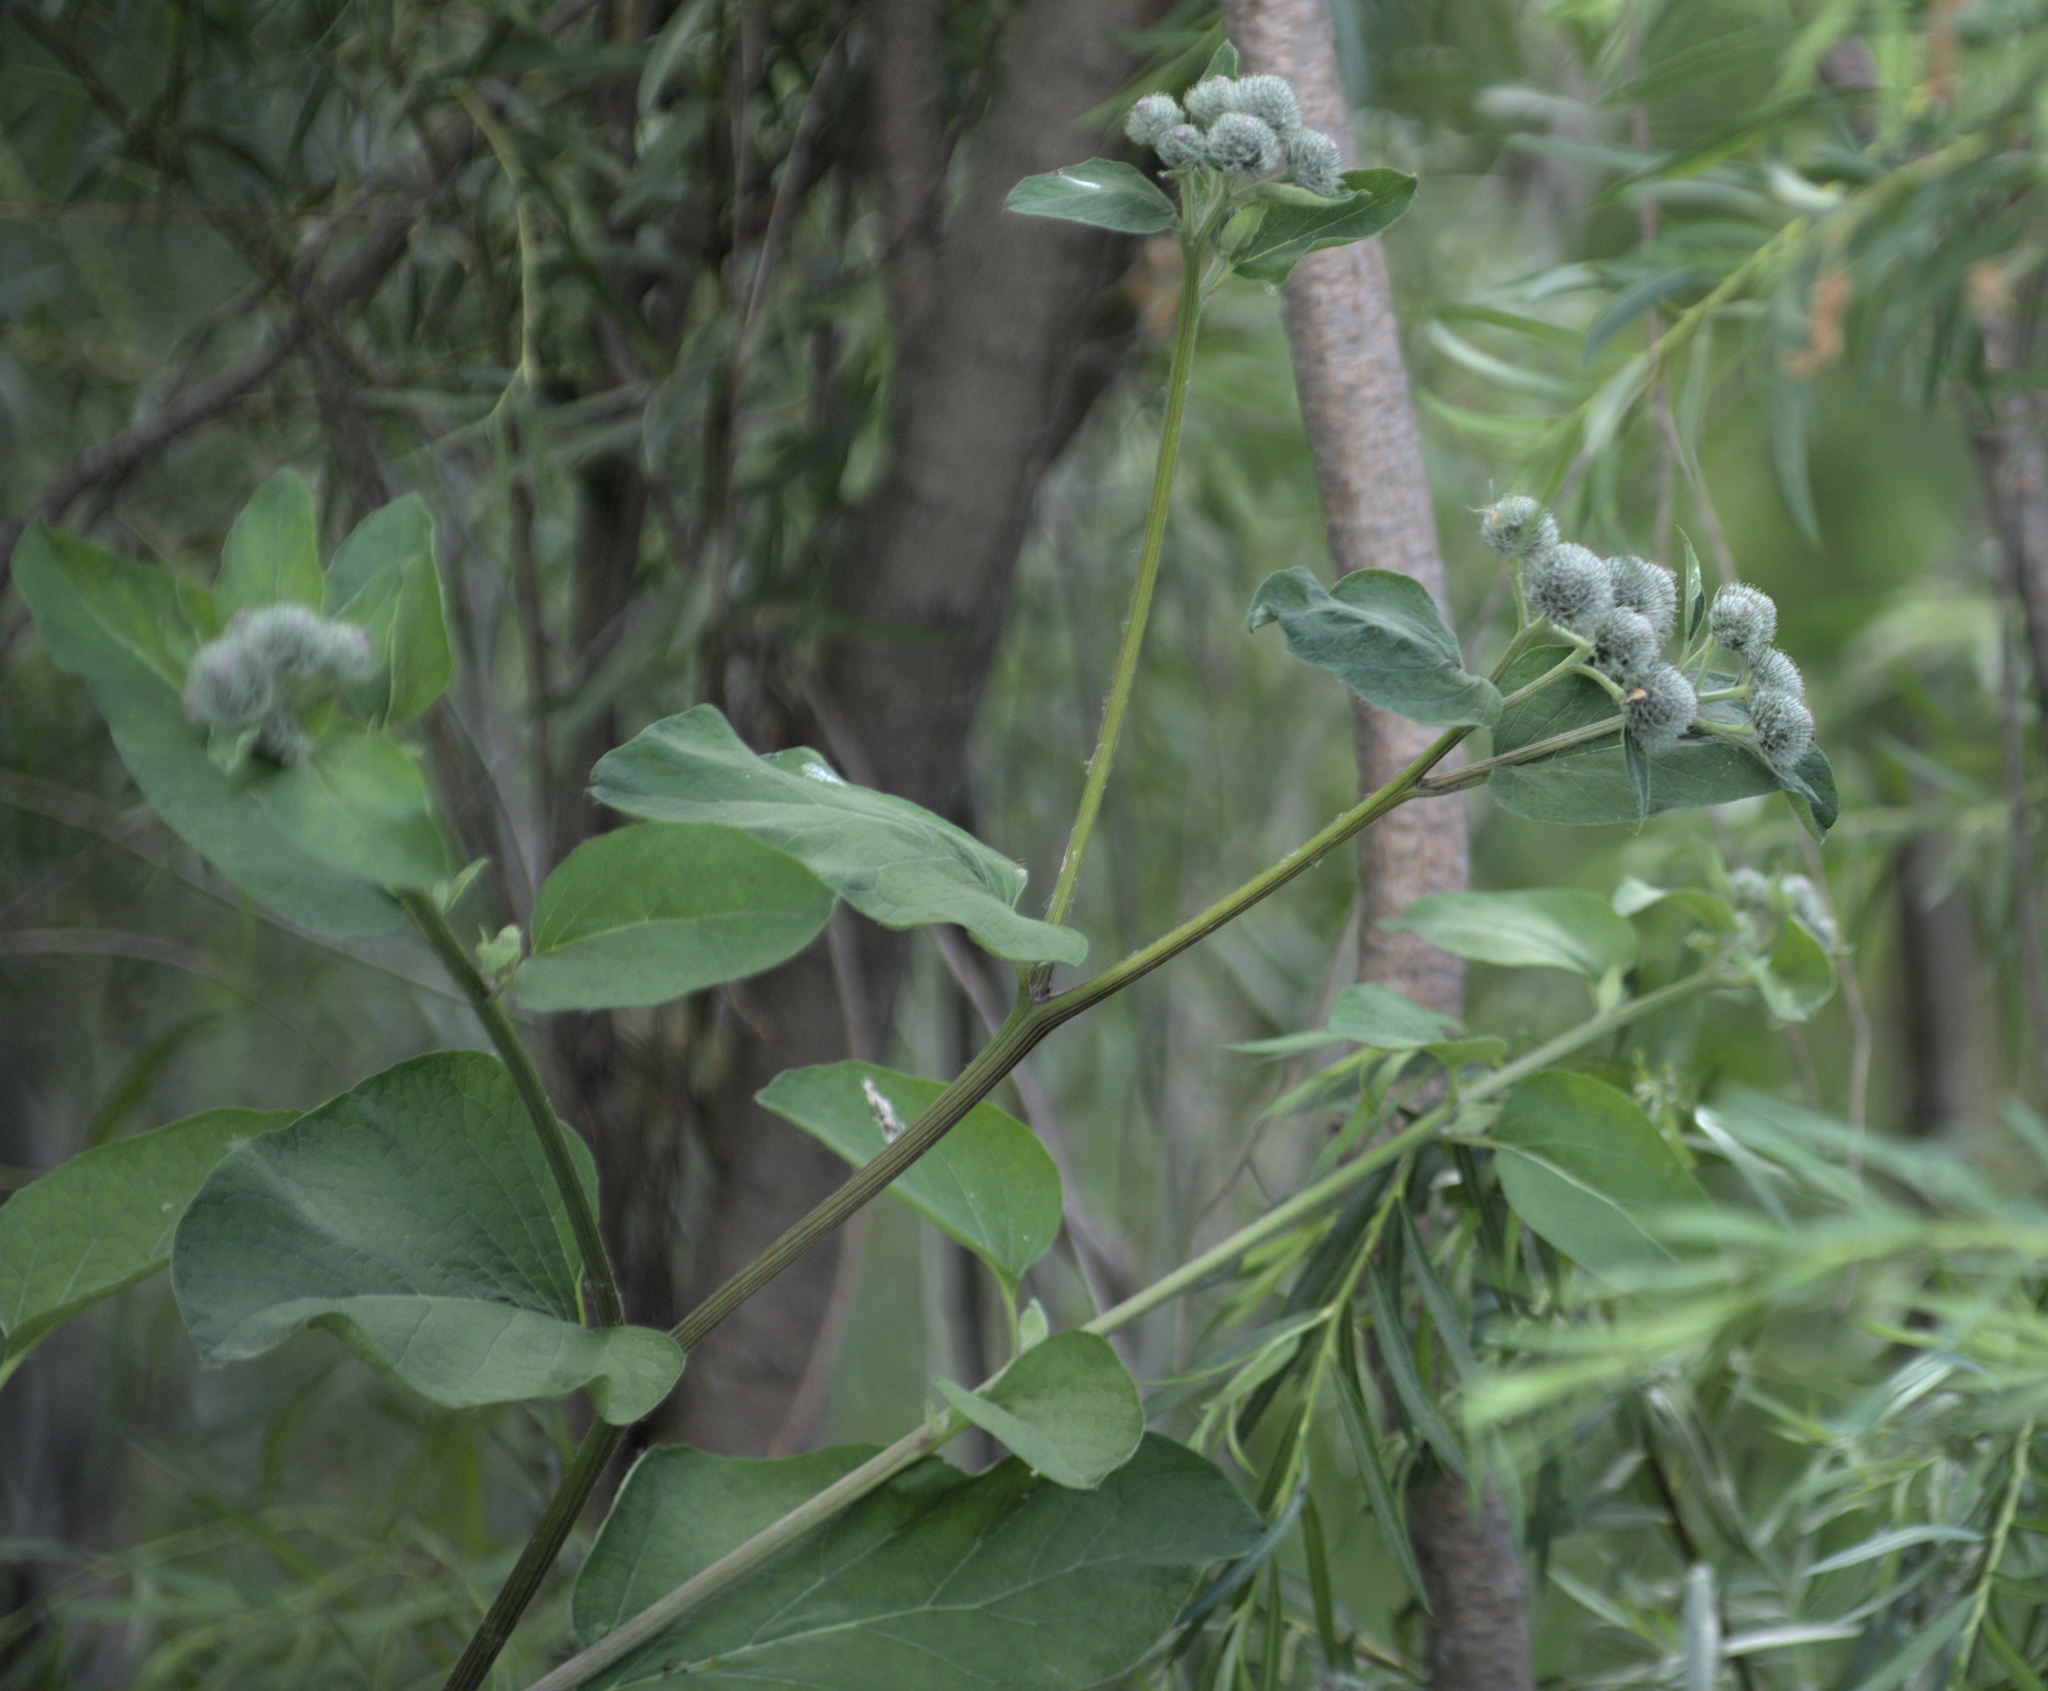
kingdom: Plantae
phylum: Tracheophyta
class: Magnoliopsida
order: Asterales
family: Asteraceae
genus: Arctium
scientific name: Arctium tomentosum
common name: Woolly burdock
